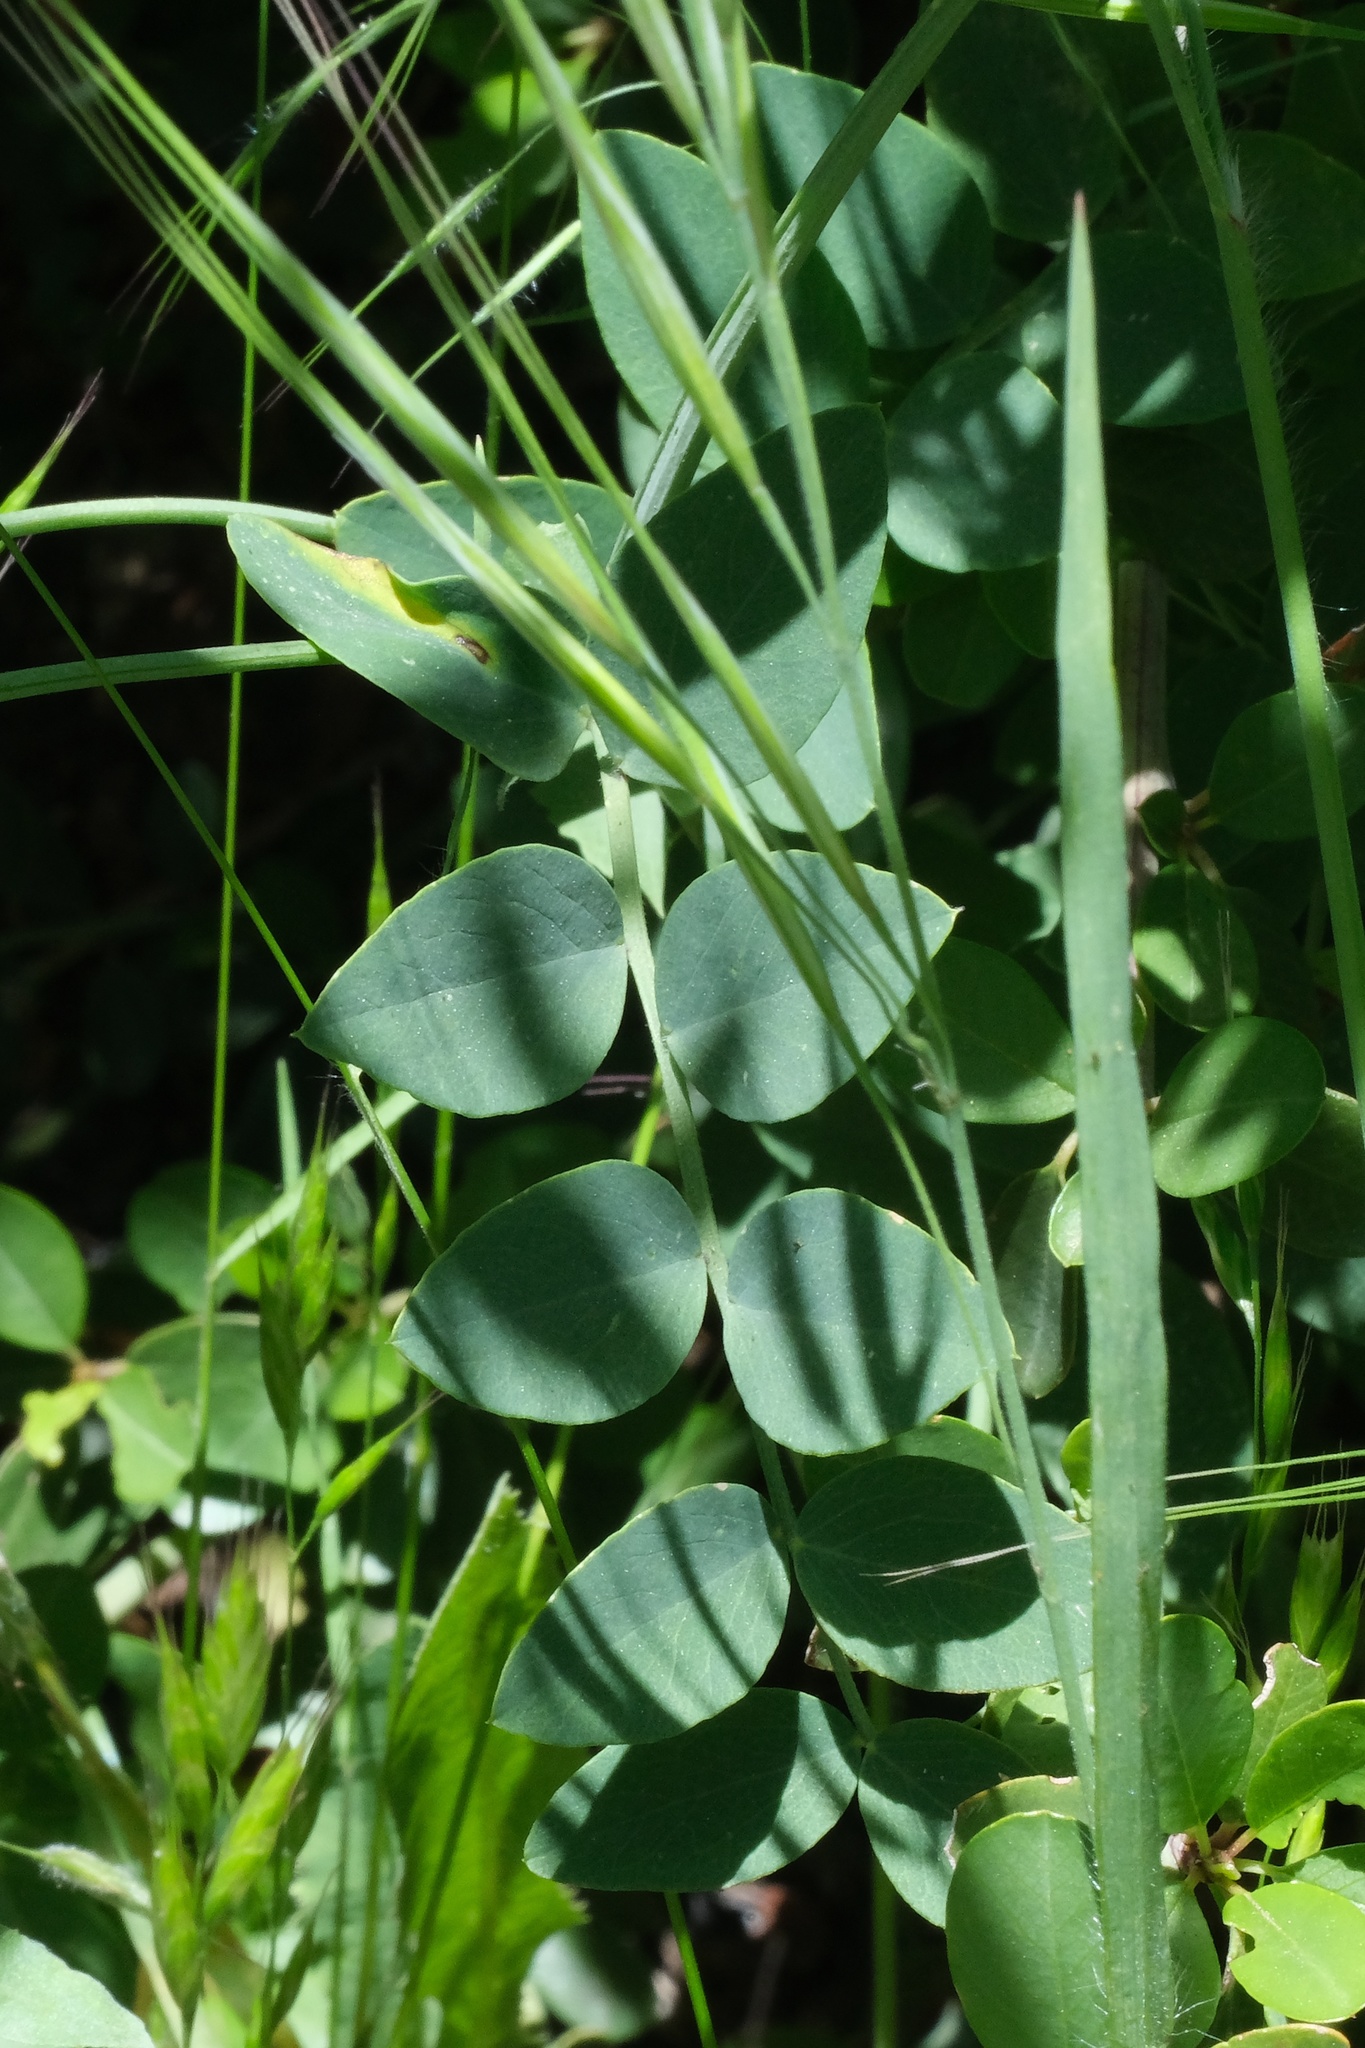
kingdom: Plantae
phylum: Tracheophyta
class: Magnoliopsida
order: Fabales
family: Fabaceae
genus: Lathyrus
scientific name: Lathyrus vestitus
